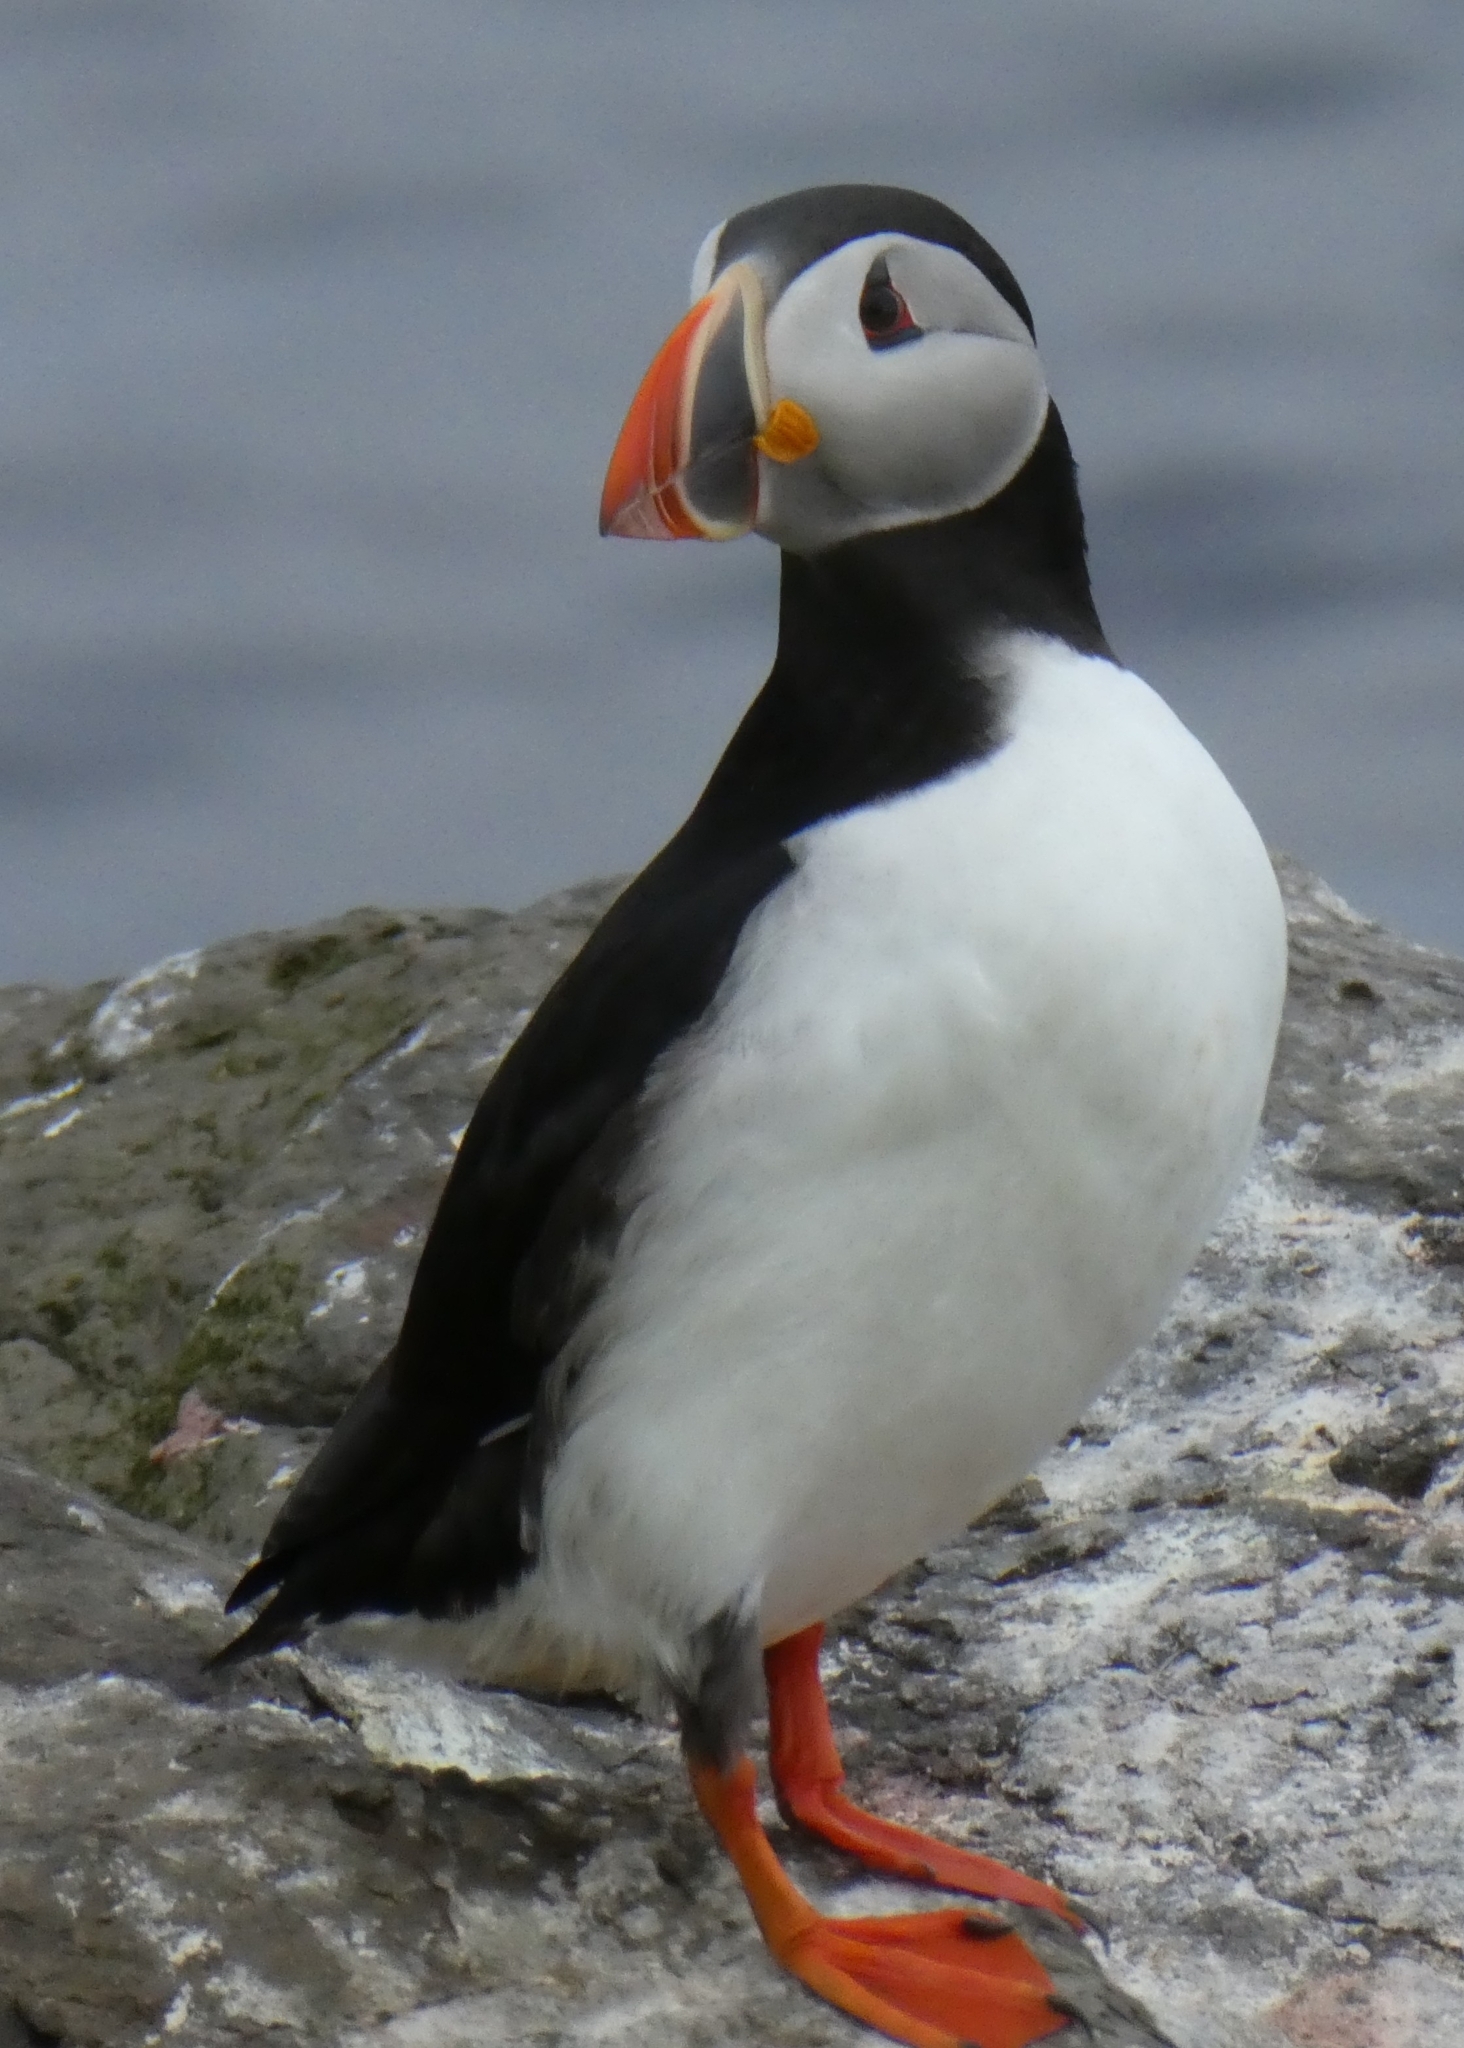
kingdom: Animalia
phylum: Chordata
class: Aves
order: Charadriiformes
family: Alcidae
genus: Fratercula
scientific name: Fratercula arctica
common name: Atlantic puffin
